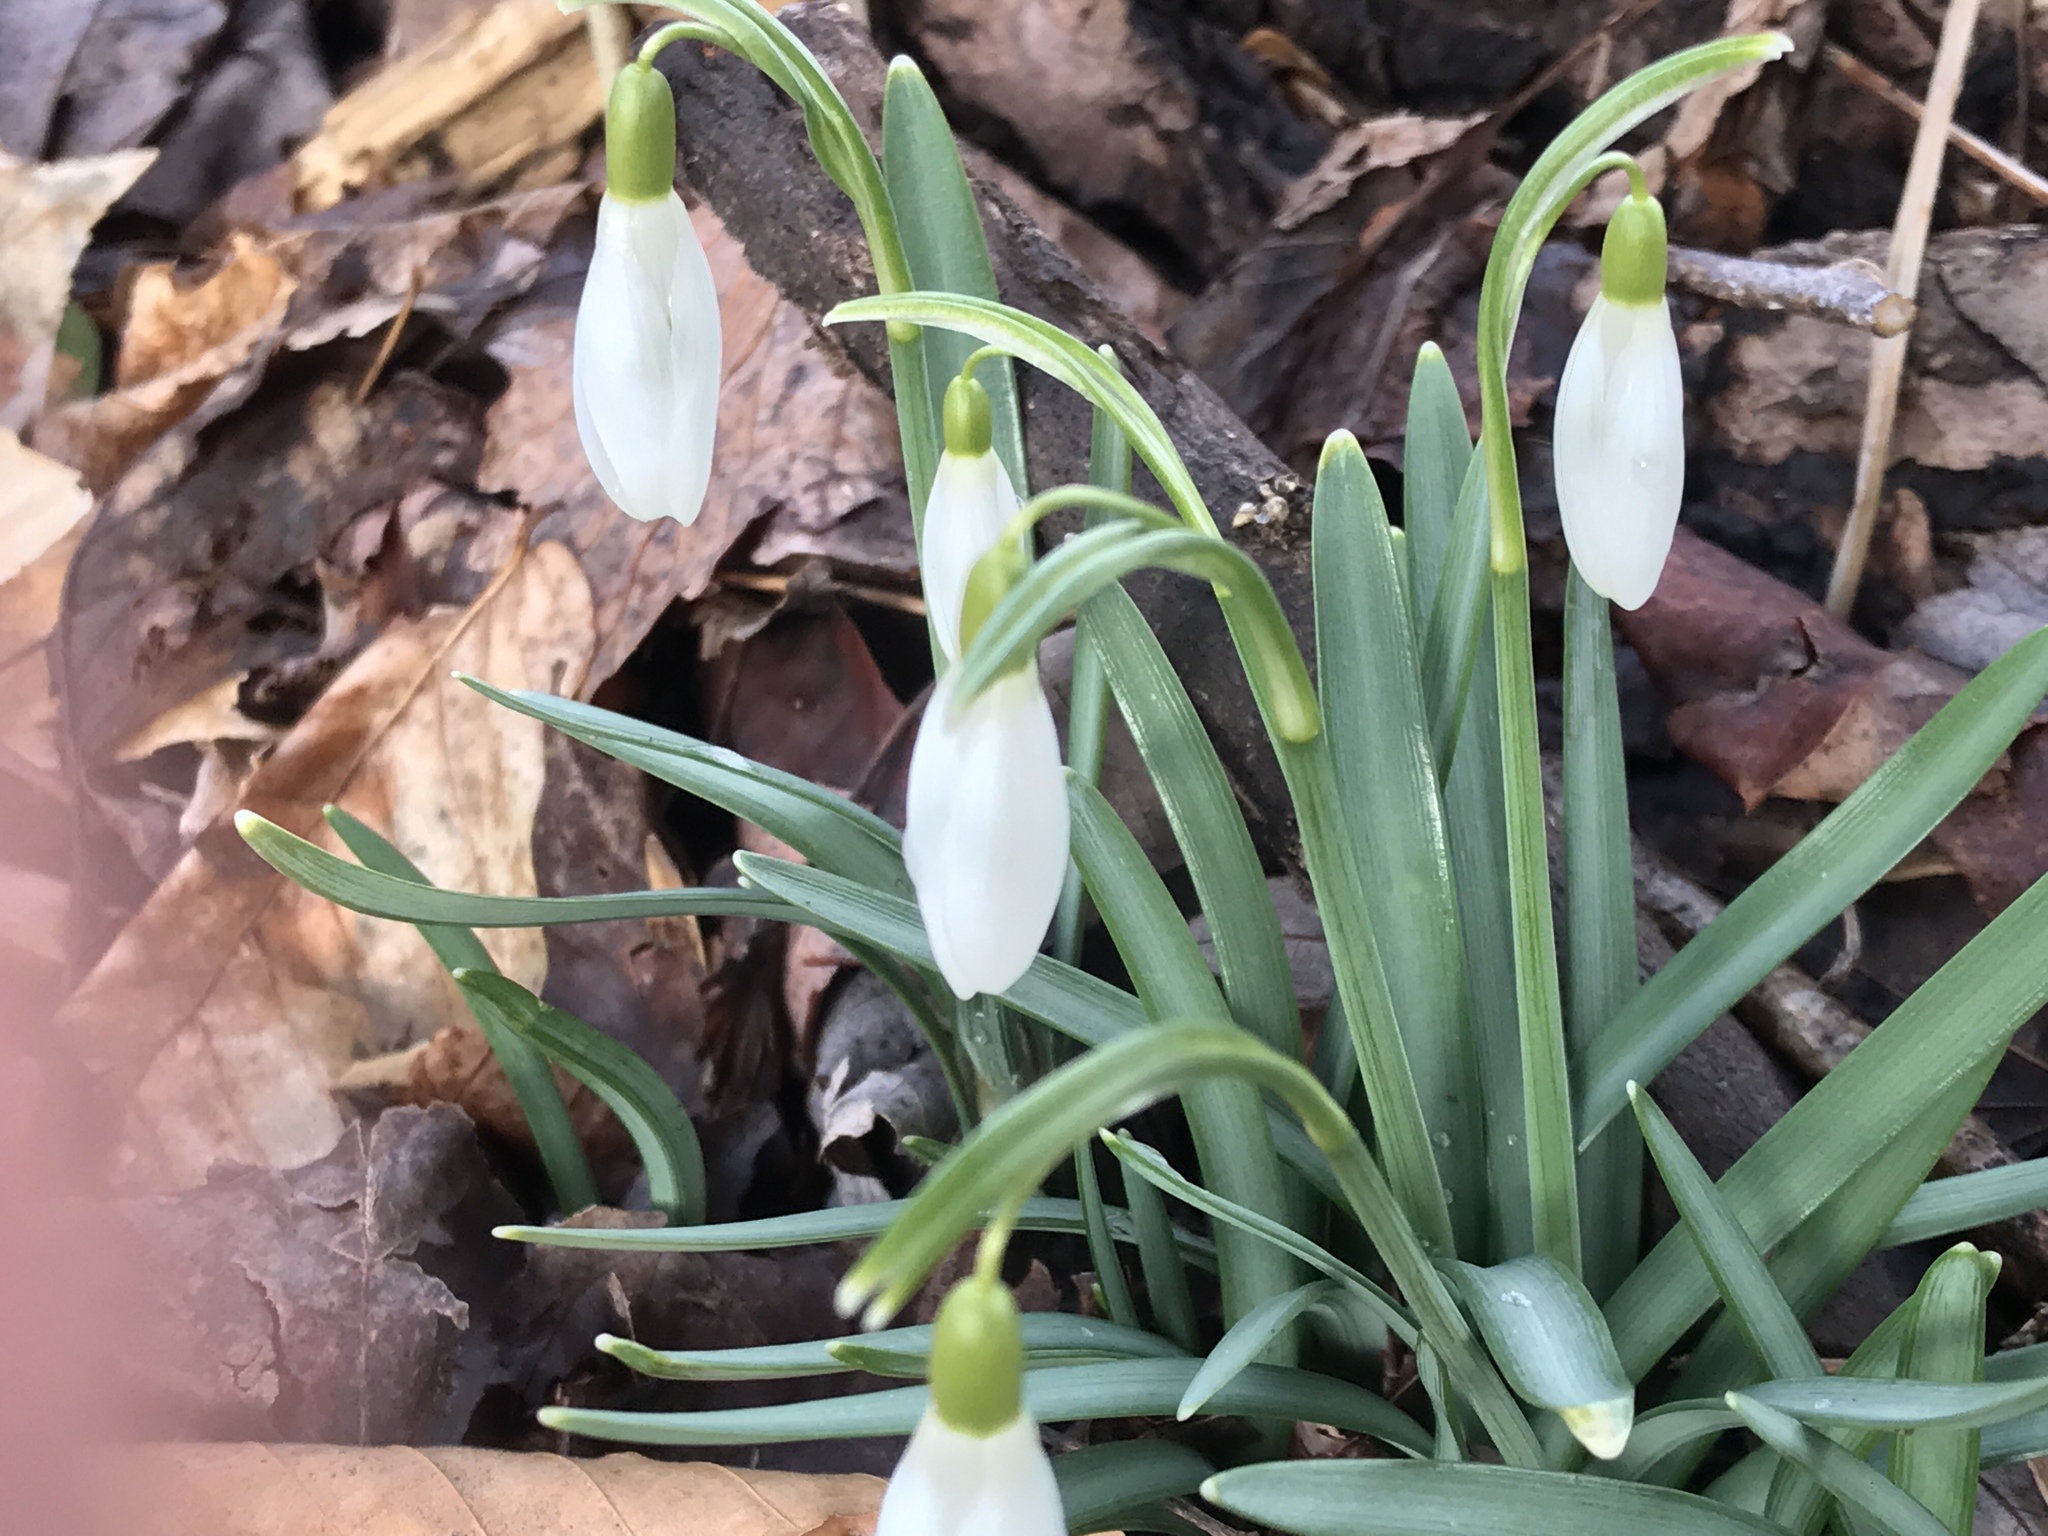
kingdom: Plantae
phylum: Tracheophyta
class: Liliopsida
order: Asparagales
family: Amaryllidaceae
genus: Galanthus
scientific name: Galanthus nivalis
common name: Snowdrop
